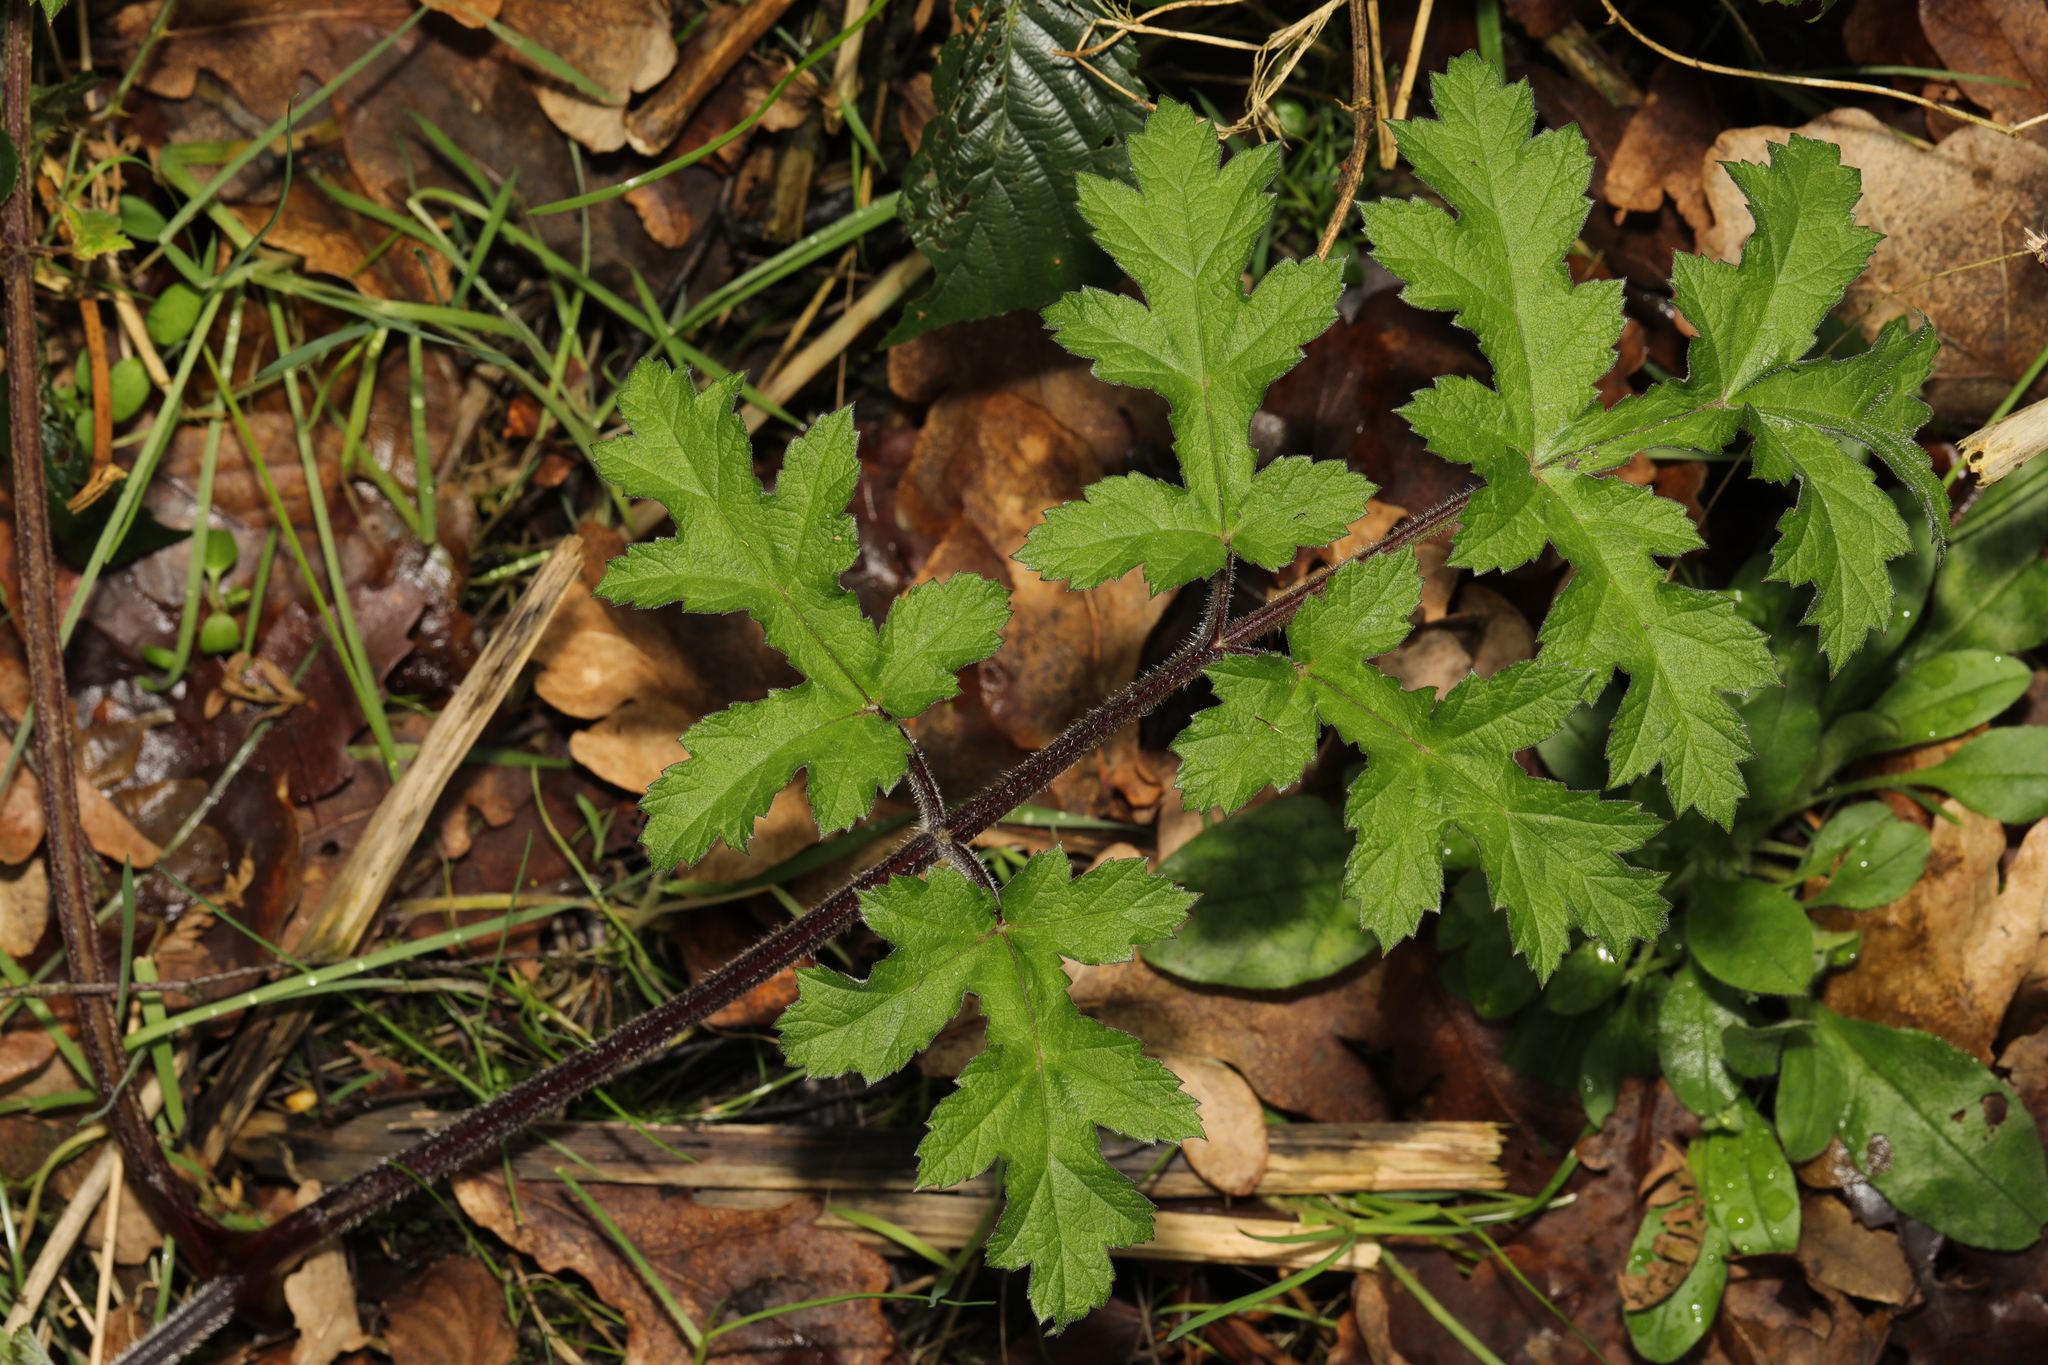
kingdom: Plantae
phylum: Tracheophyta
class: Magnoliopsida
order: Apiales
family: Apiaceae
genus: Heracleum
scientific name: Heracleum sphondylium
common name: Hogweed
